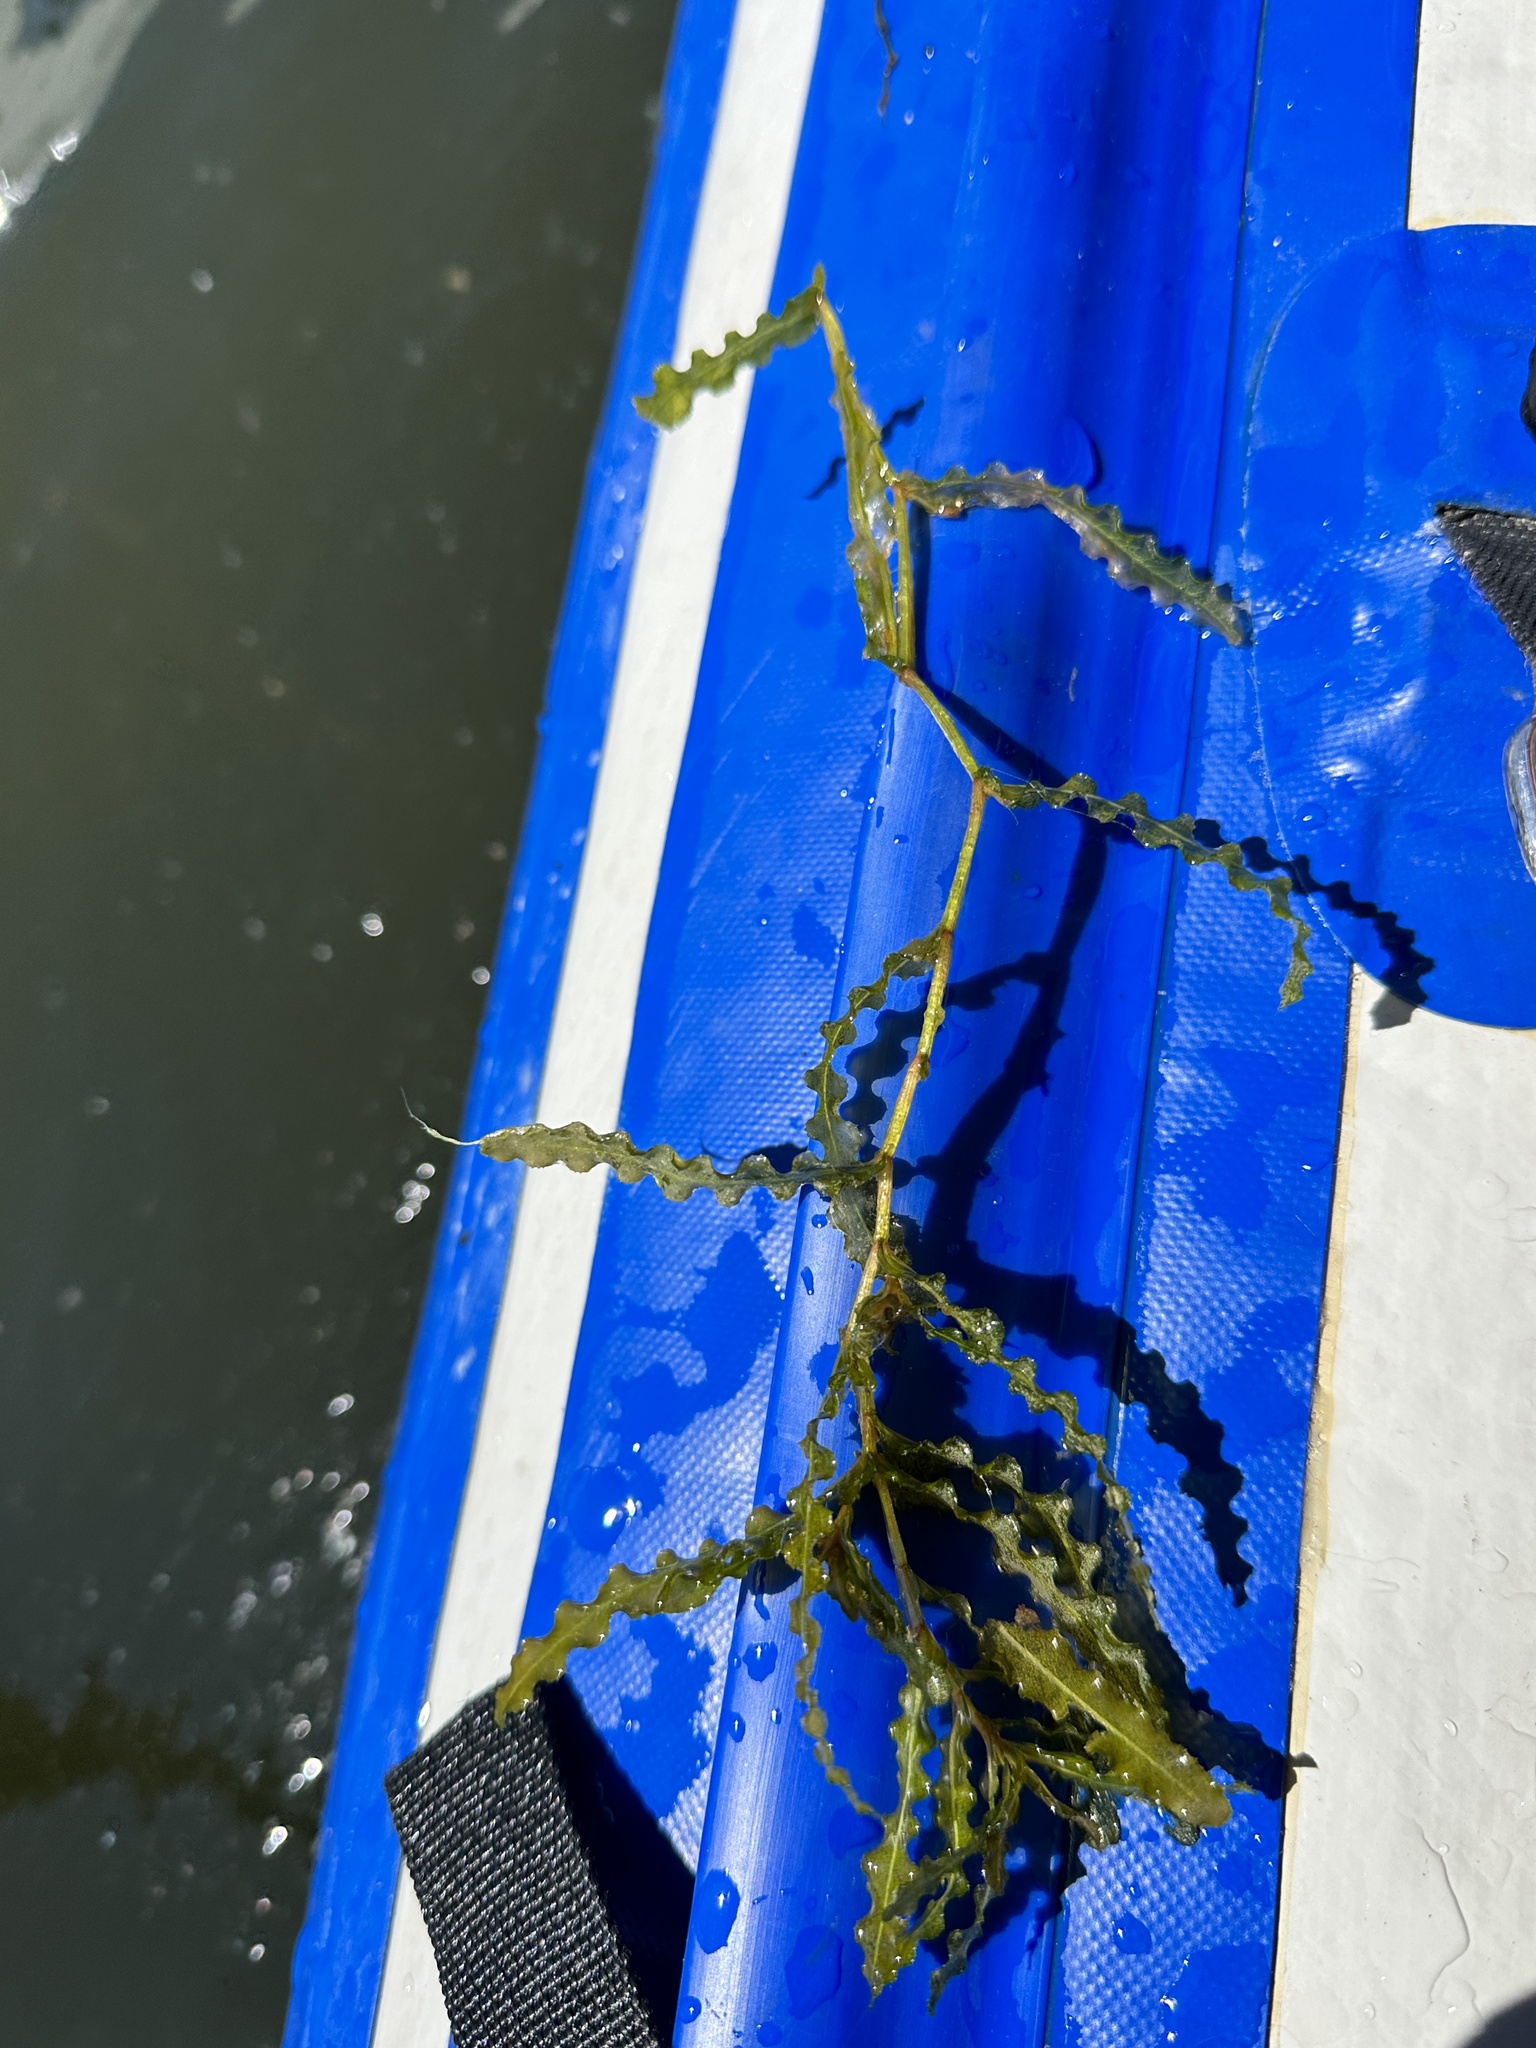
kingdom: Plantae
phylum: Tracheophyta
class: Liliopsida
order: Alismatales
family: Potamogetonaceae
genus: Potamogeton
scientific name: Potamogeton crispus
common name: Curled pondweed
